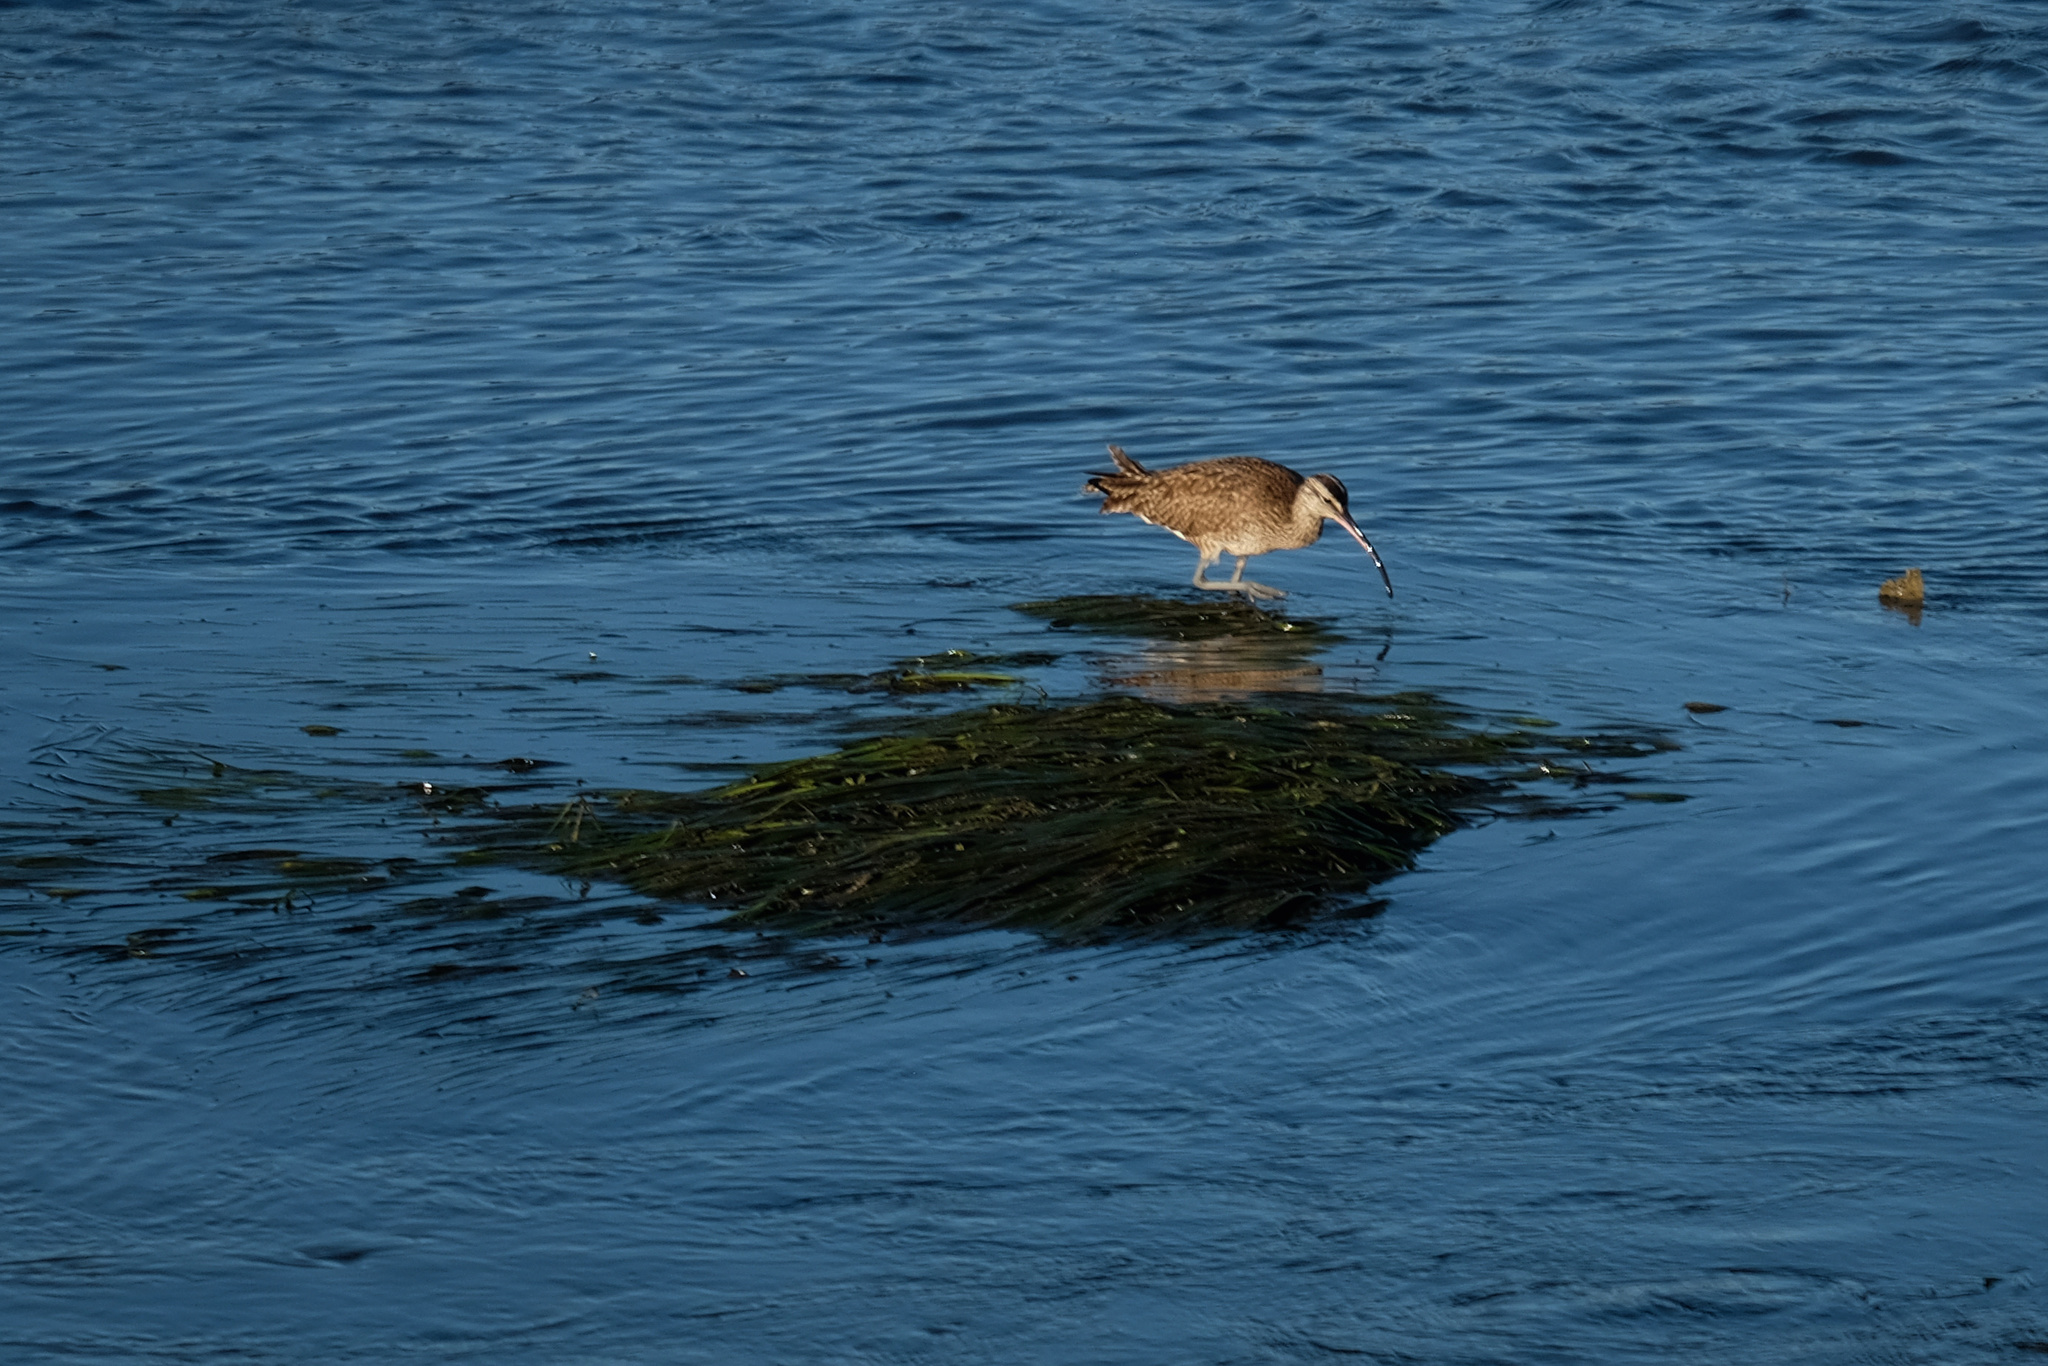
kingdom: Animalia
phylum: Chordata
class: Aves
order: Charadriiformes
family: Scolopacidae
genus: Numenius
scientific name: Numenius phaeopus
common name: Whimbrel
